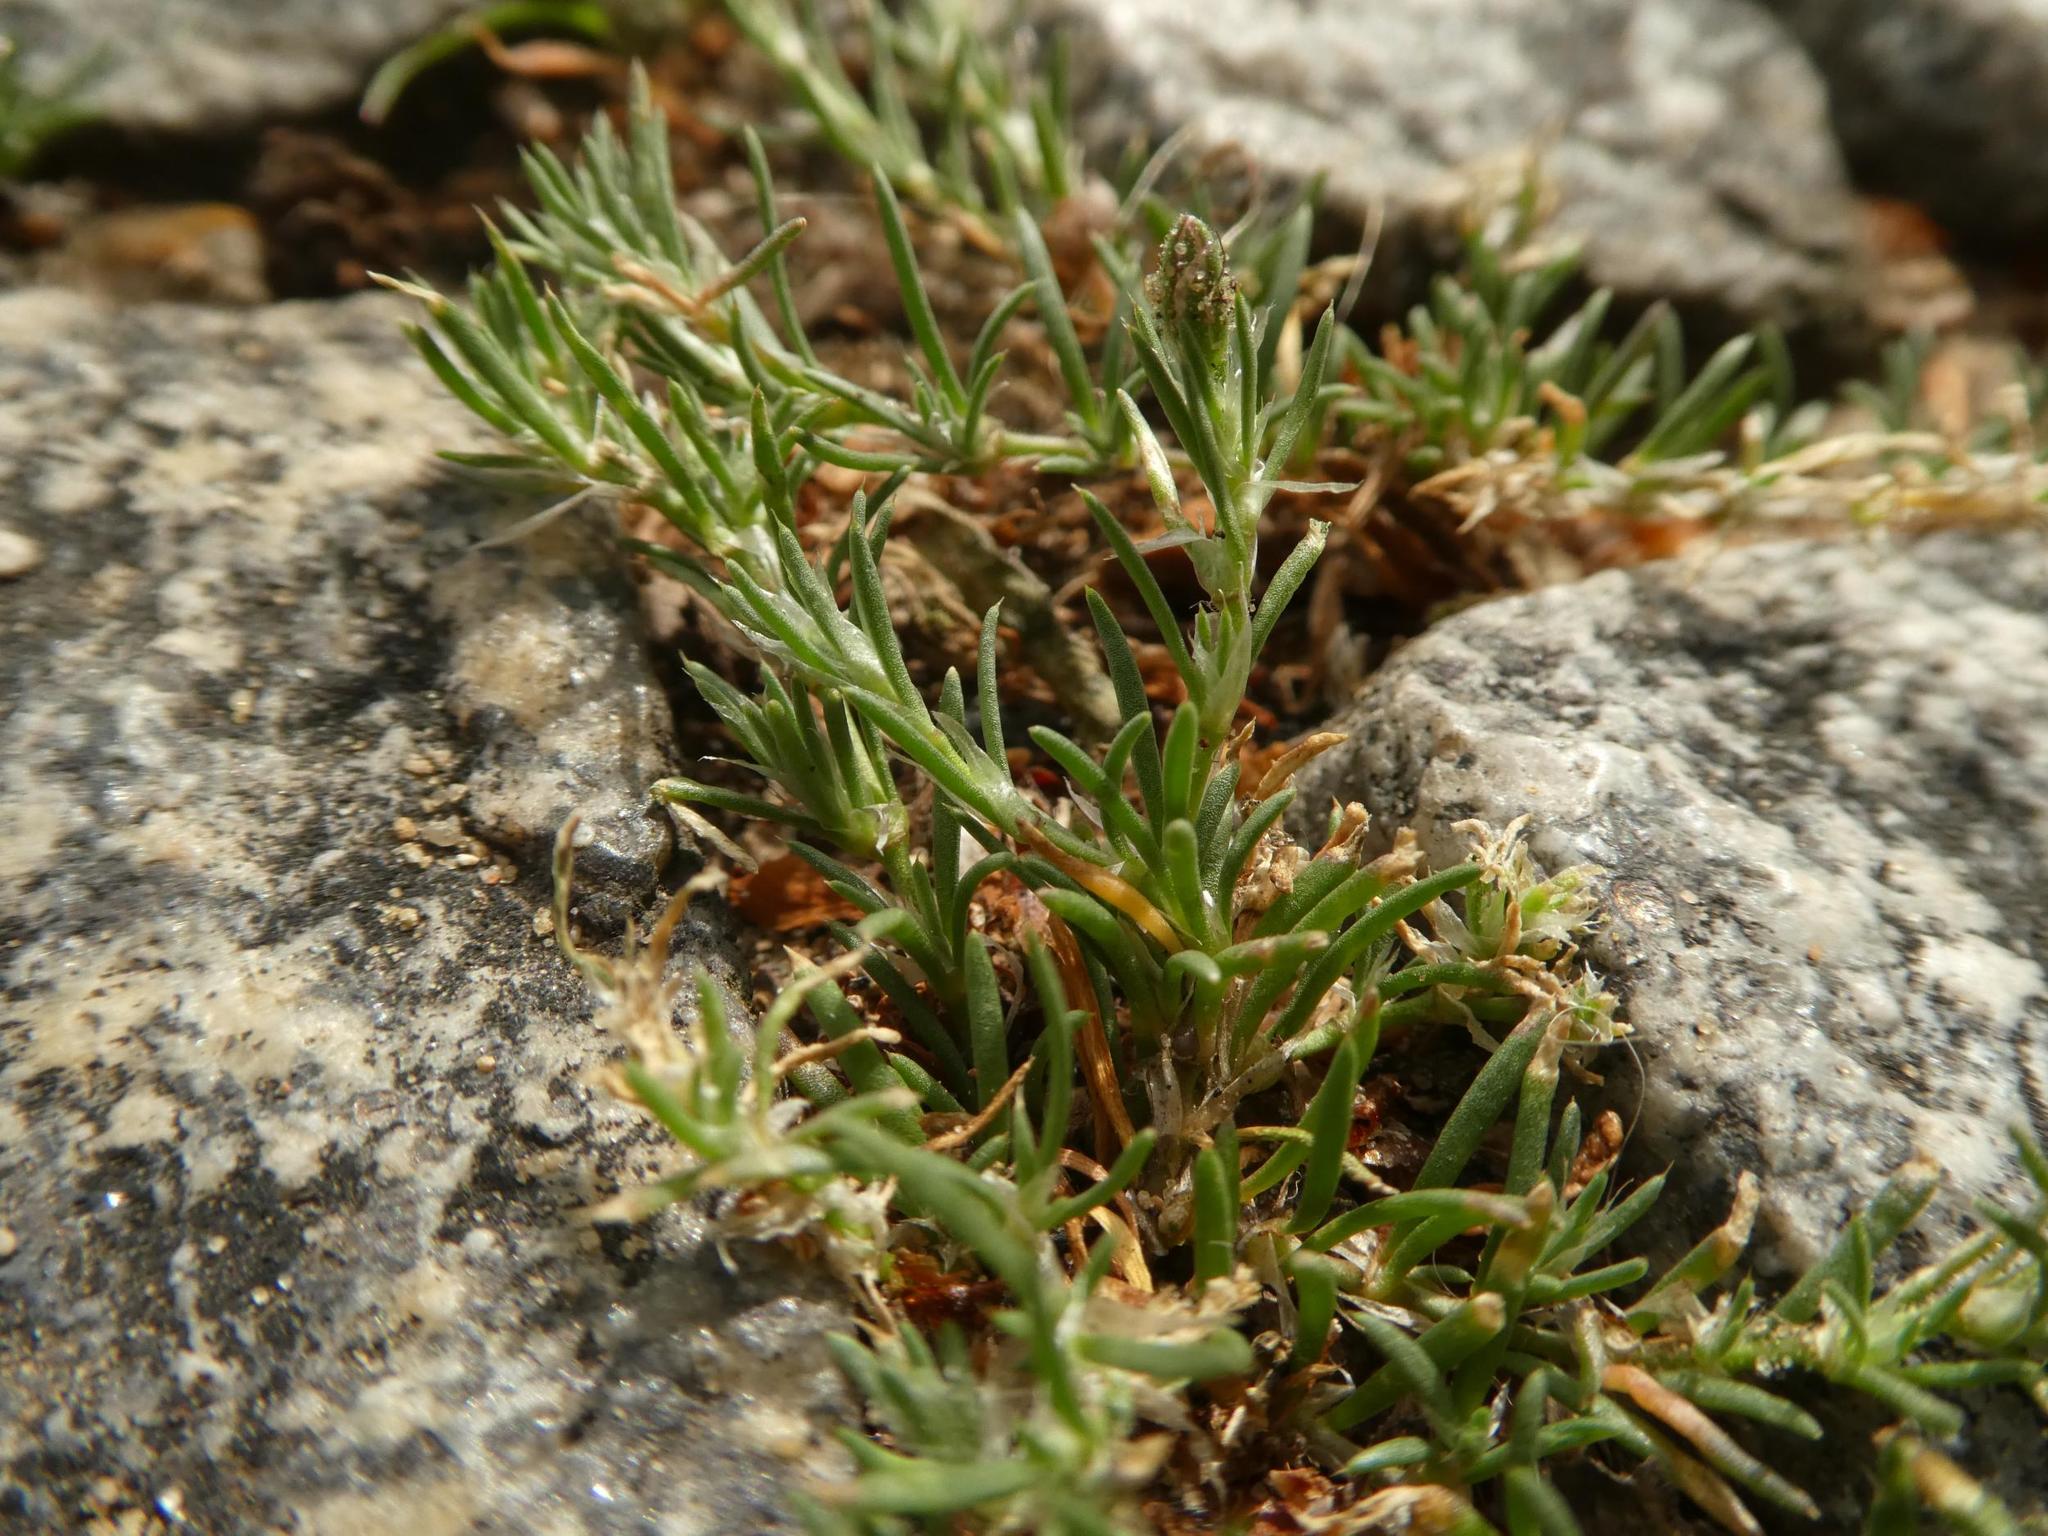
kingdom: Plantae
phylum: Tracheophyta
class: Magnoliopsida
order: Caryophyllales
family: Caryophyllaceae
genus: Spergularia
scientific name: Spergularia rubra
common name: Red sand-spurrey
